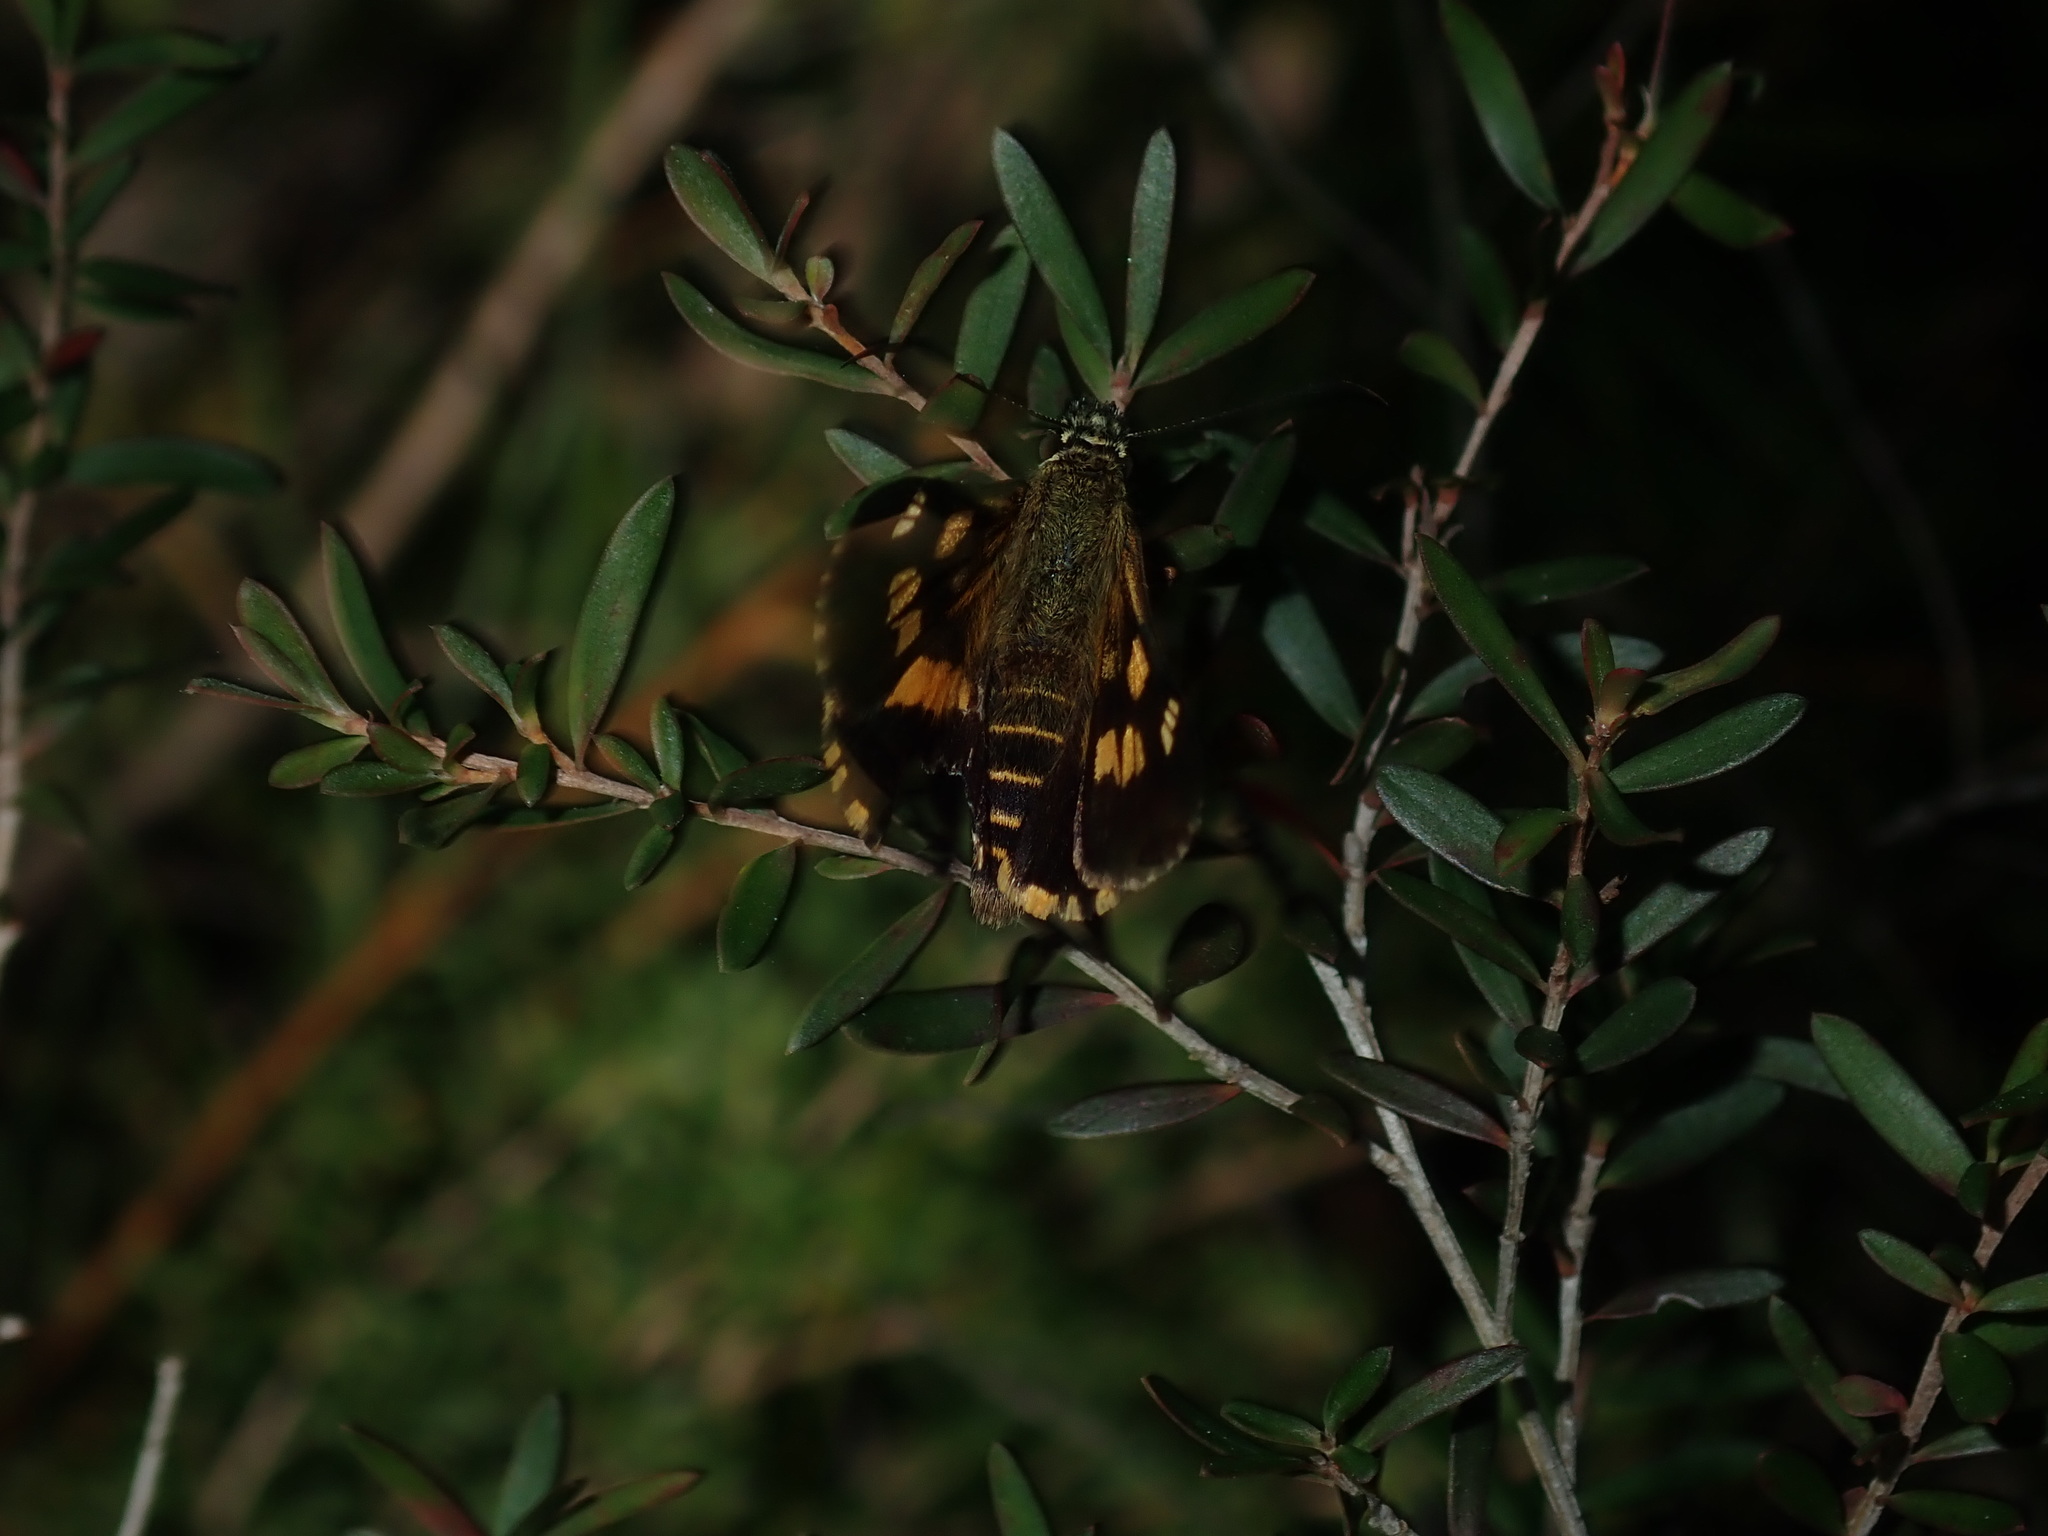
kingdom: Animalia
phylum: Arthropoda
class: Insecta
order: Lepidoptera
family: Hesperiidae
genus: Hesperilla
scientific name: Hesperilla picta
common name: Painted sedge-skipper
